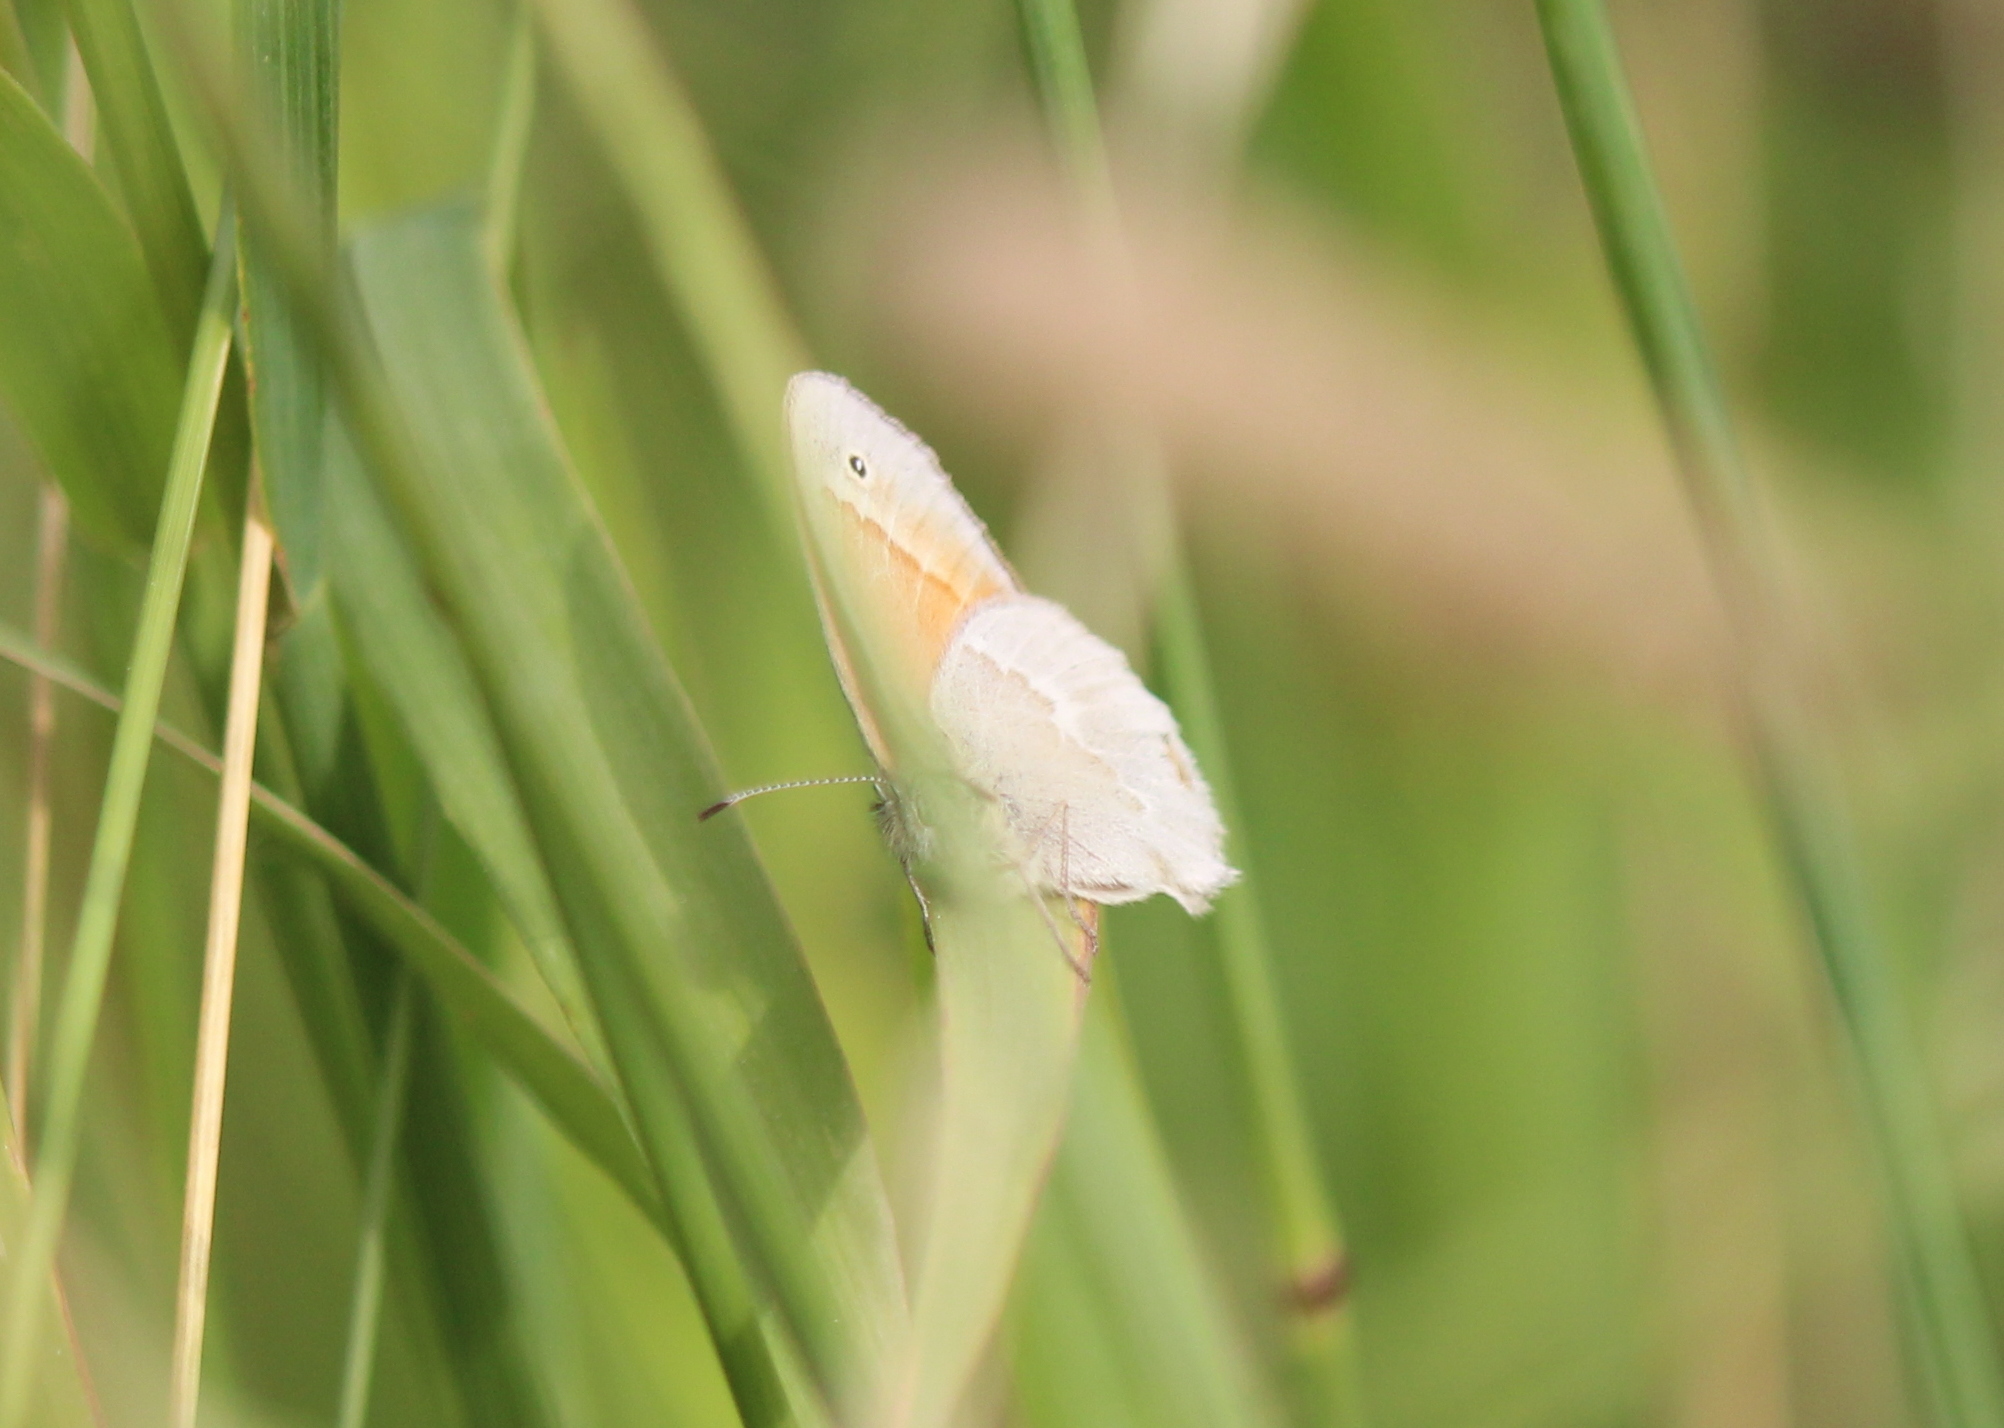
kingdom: Animalia
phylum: Arthropoda
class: Insecta
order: Lepidoptera
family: Nymphalidae
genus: Coenonympha
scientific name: Coenonympha california
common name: Common ringlet
